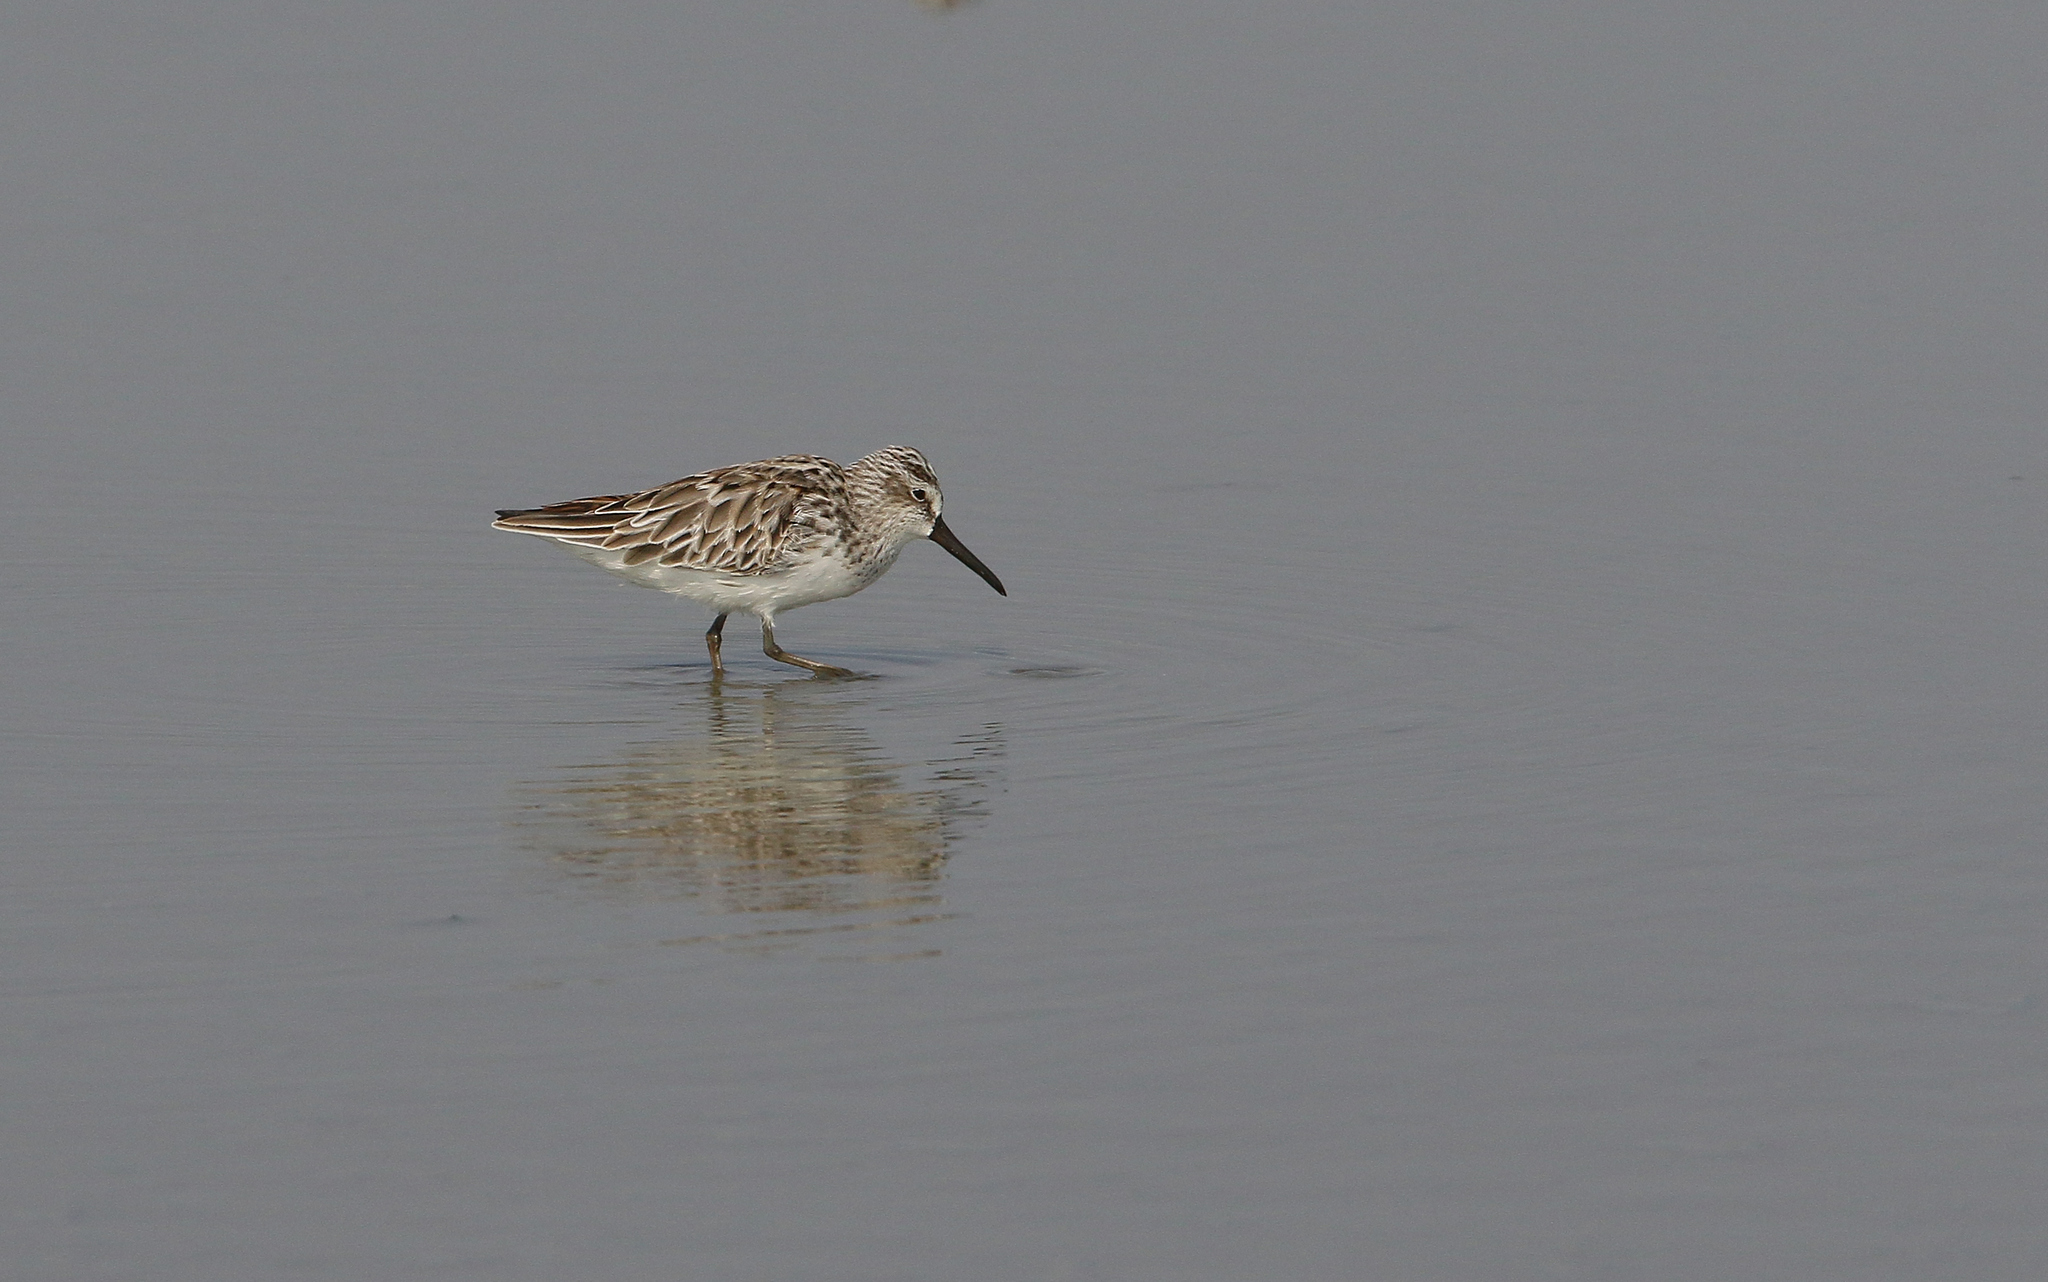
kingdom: Animalia
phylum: Chordata
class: Aves
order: Charadriiformes
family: Scolopacidae
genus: Calidris
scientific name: Calidris falcinellus
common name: Broad-billed sandpiper
